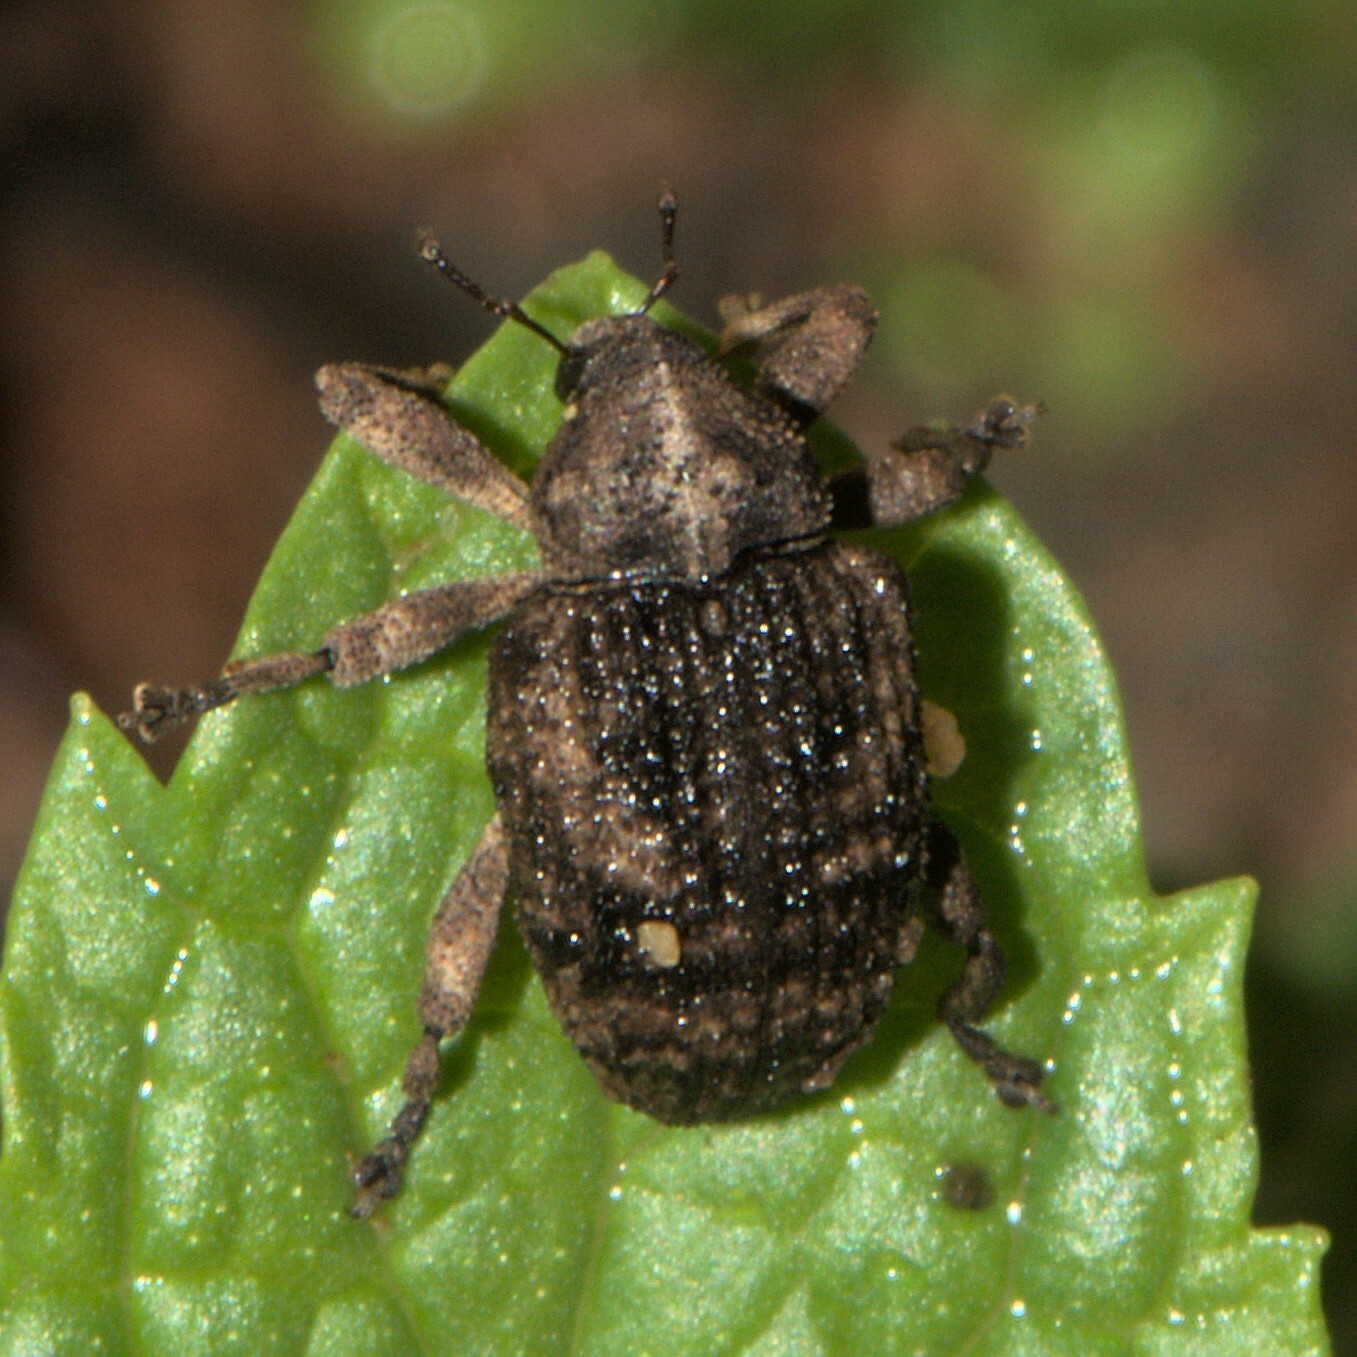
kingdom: Animalia
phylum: Arthropoda
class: Insecta
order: Coleoptera
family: Curculionidae
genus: Sternochetus
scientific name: Sternochetus mangiferae
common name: Mango seed weevil
